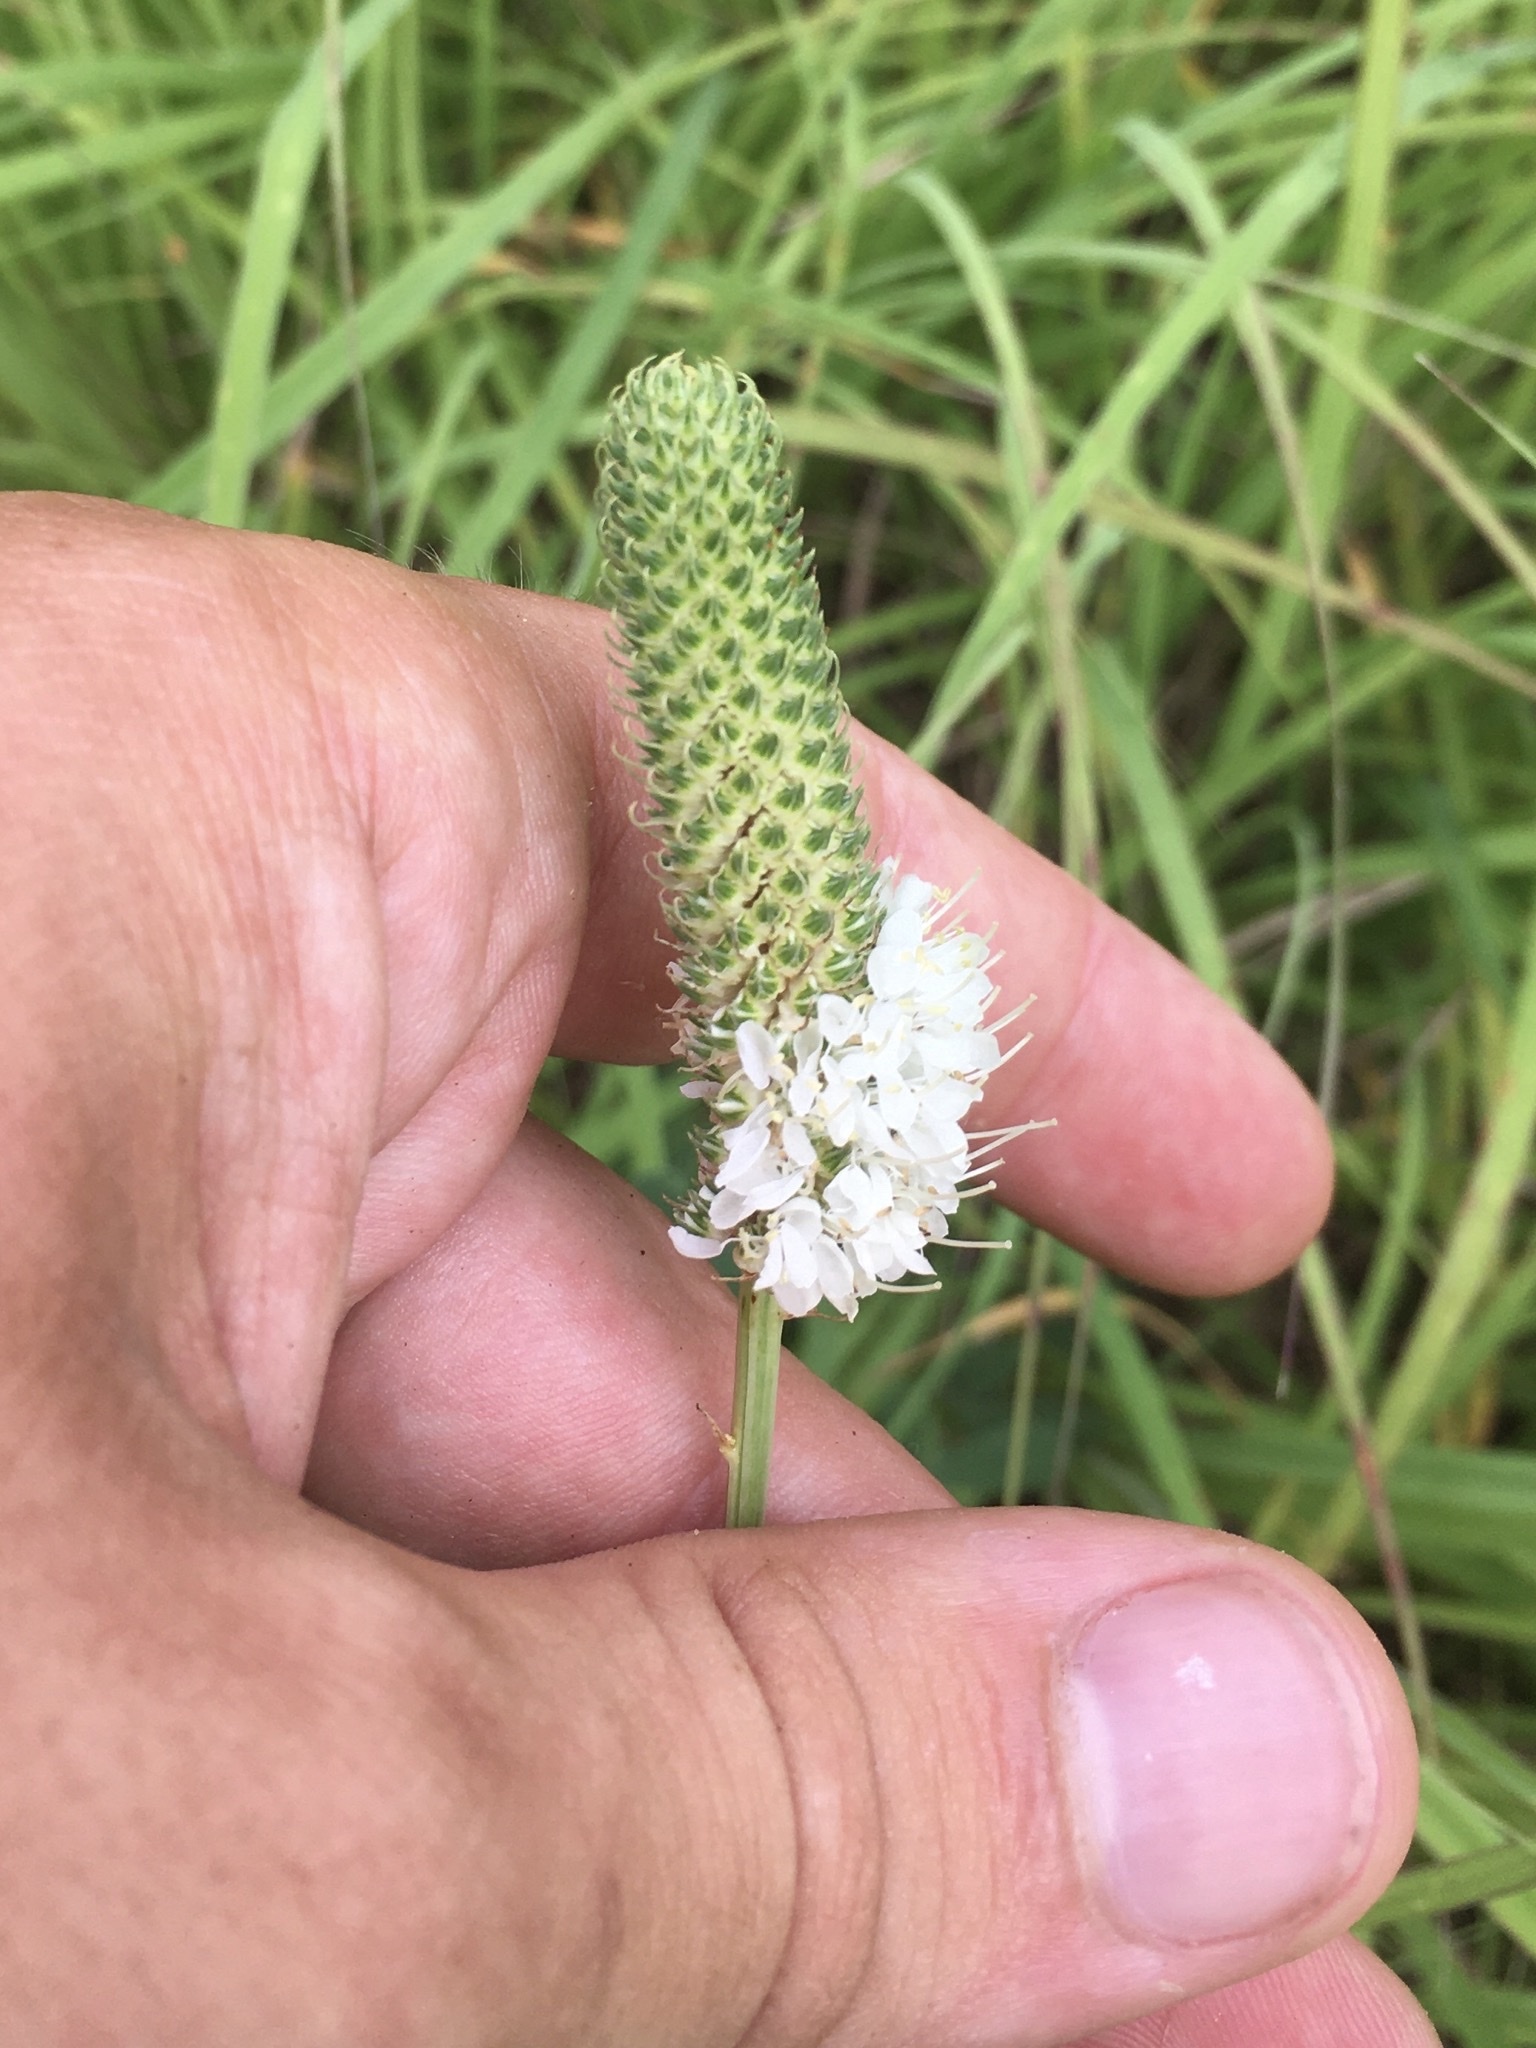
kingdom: Plantae
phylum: Tracheophyta
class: Magnoliopsida
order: Fabales
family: Fabaceae
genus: Dalea
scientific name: Dalea candida
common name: White prairie-clover
